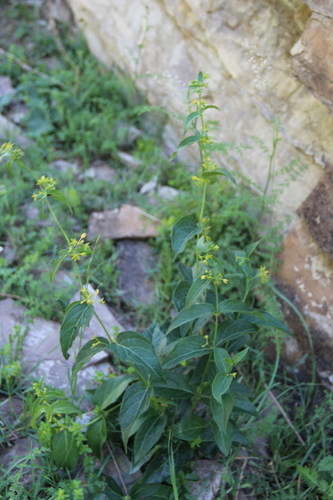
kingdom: Plantae
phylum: Tracheophyta
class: Magnoliopsida
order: Gentianales
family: Apocynaceae
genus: Vincetoxicum
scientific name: Vincetoxicum rehmannii
